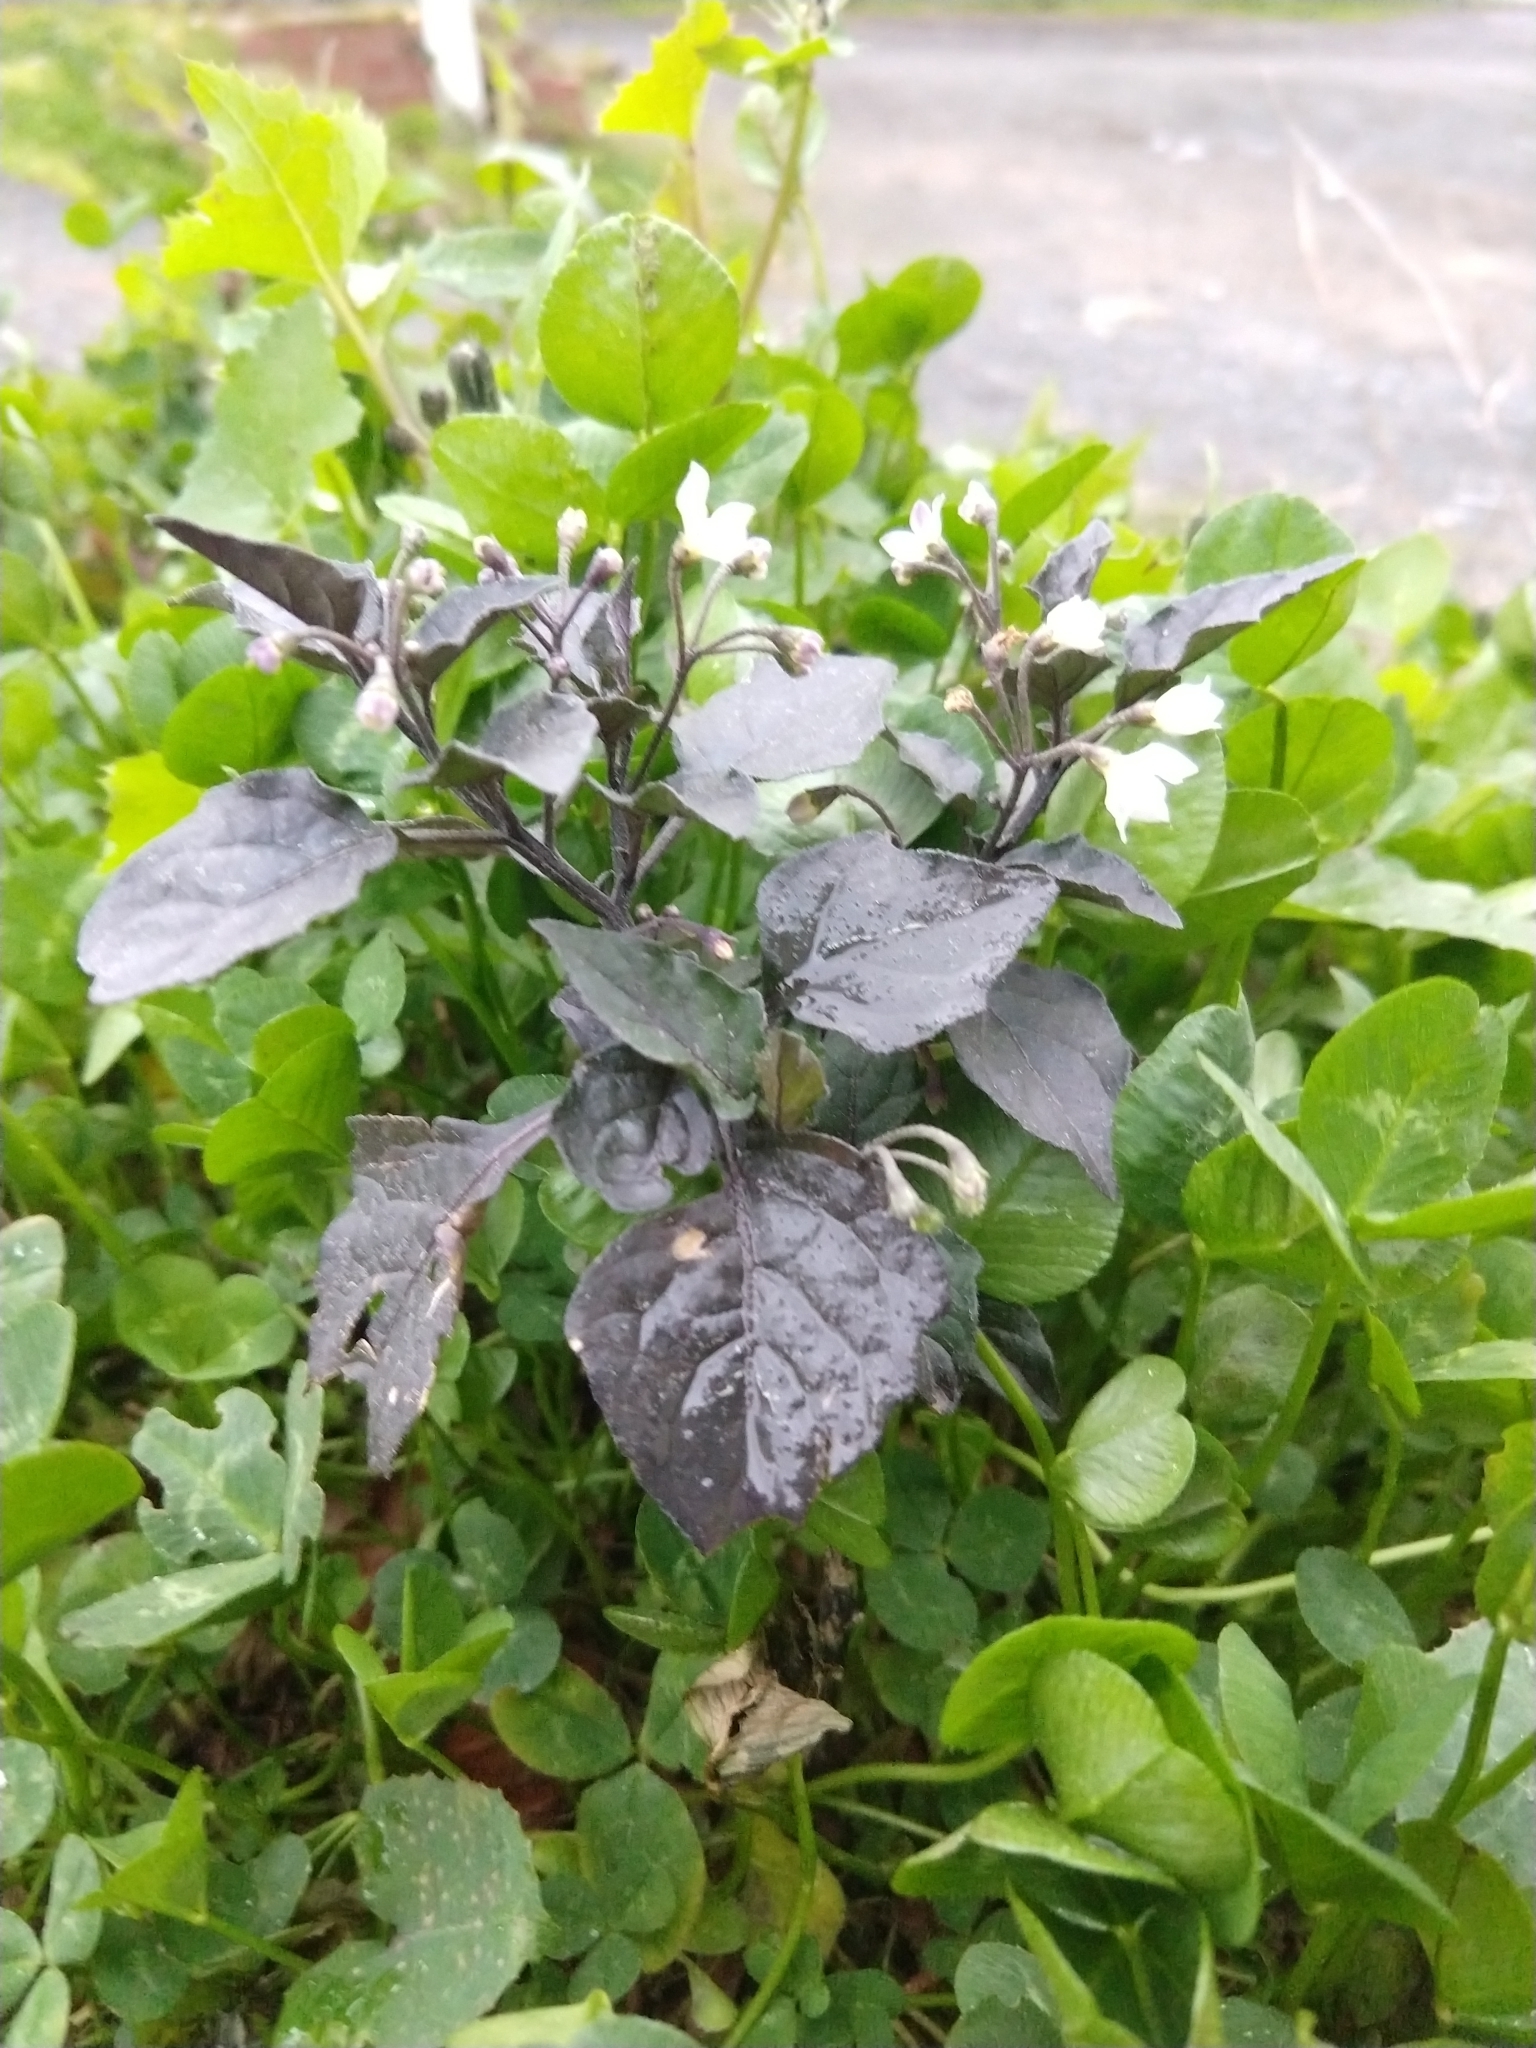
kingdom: Plantae
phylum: Tracheophyta
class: Magnoliopsida
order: Solanales
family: Solanaceae
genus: Solanum
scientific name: Solanum nigrum
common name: Black nightshade
